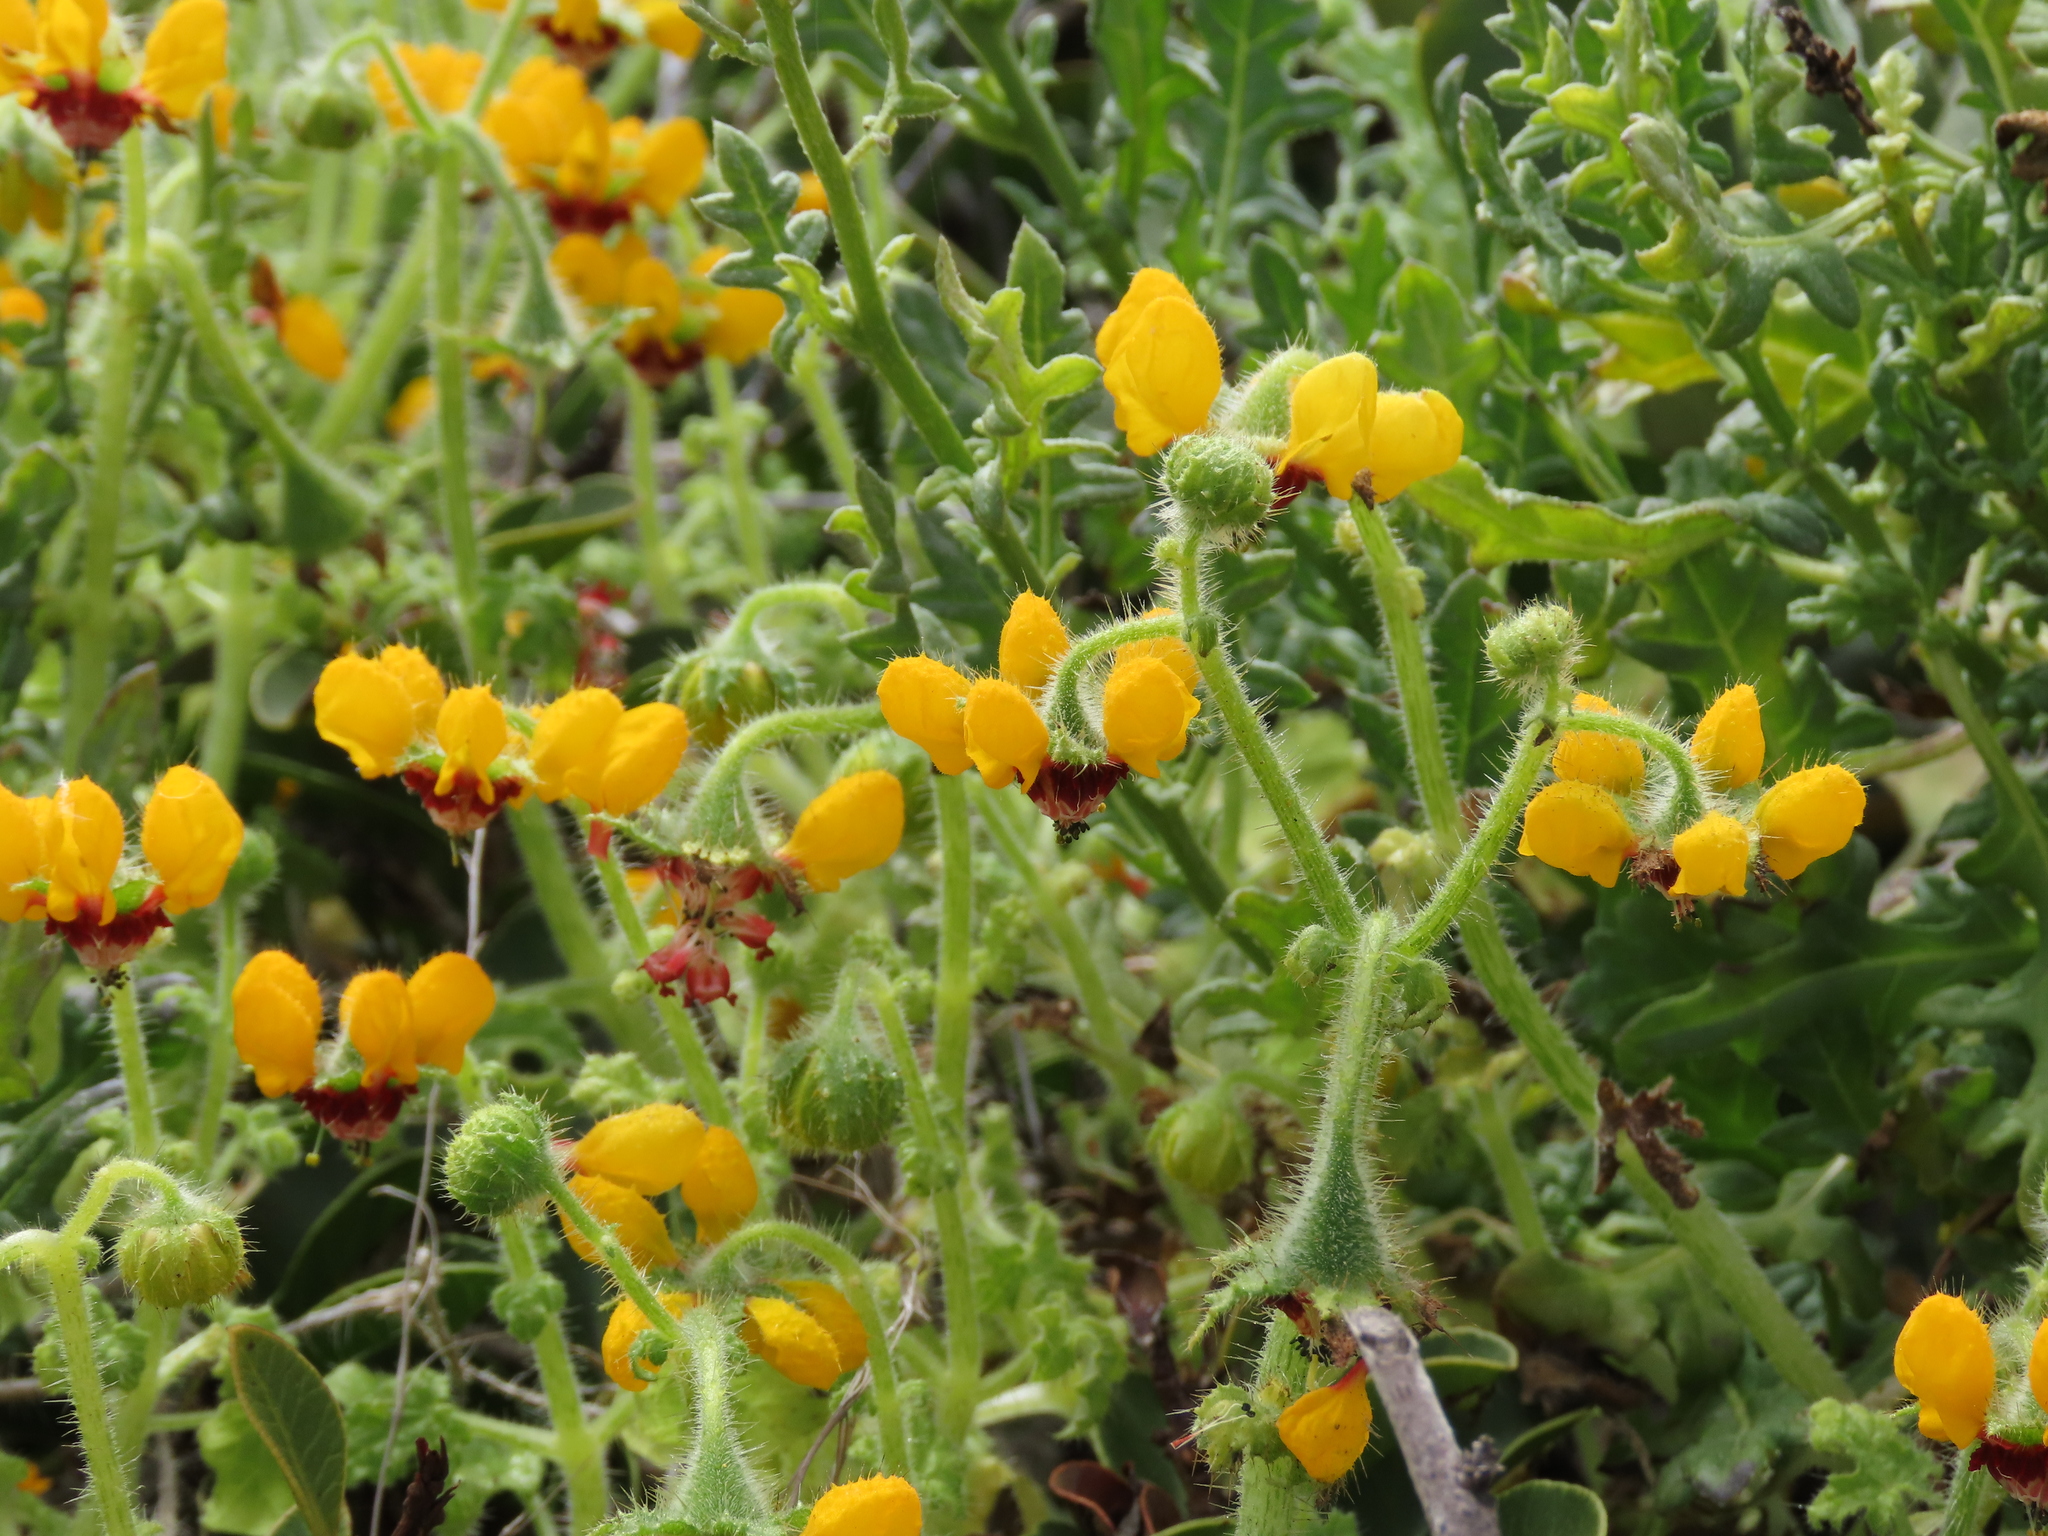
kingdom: Plantae
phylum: Tracheophyta
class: Magnoliopsida
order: Cornales
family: Loasaceae
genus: Loasa
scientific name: Loasa tricolor
